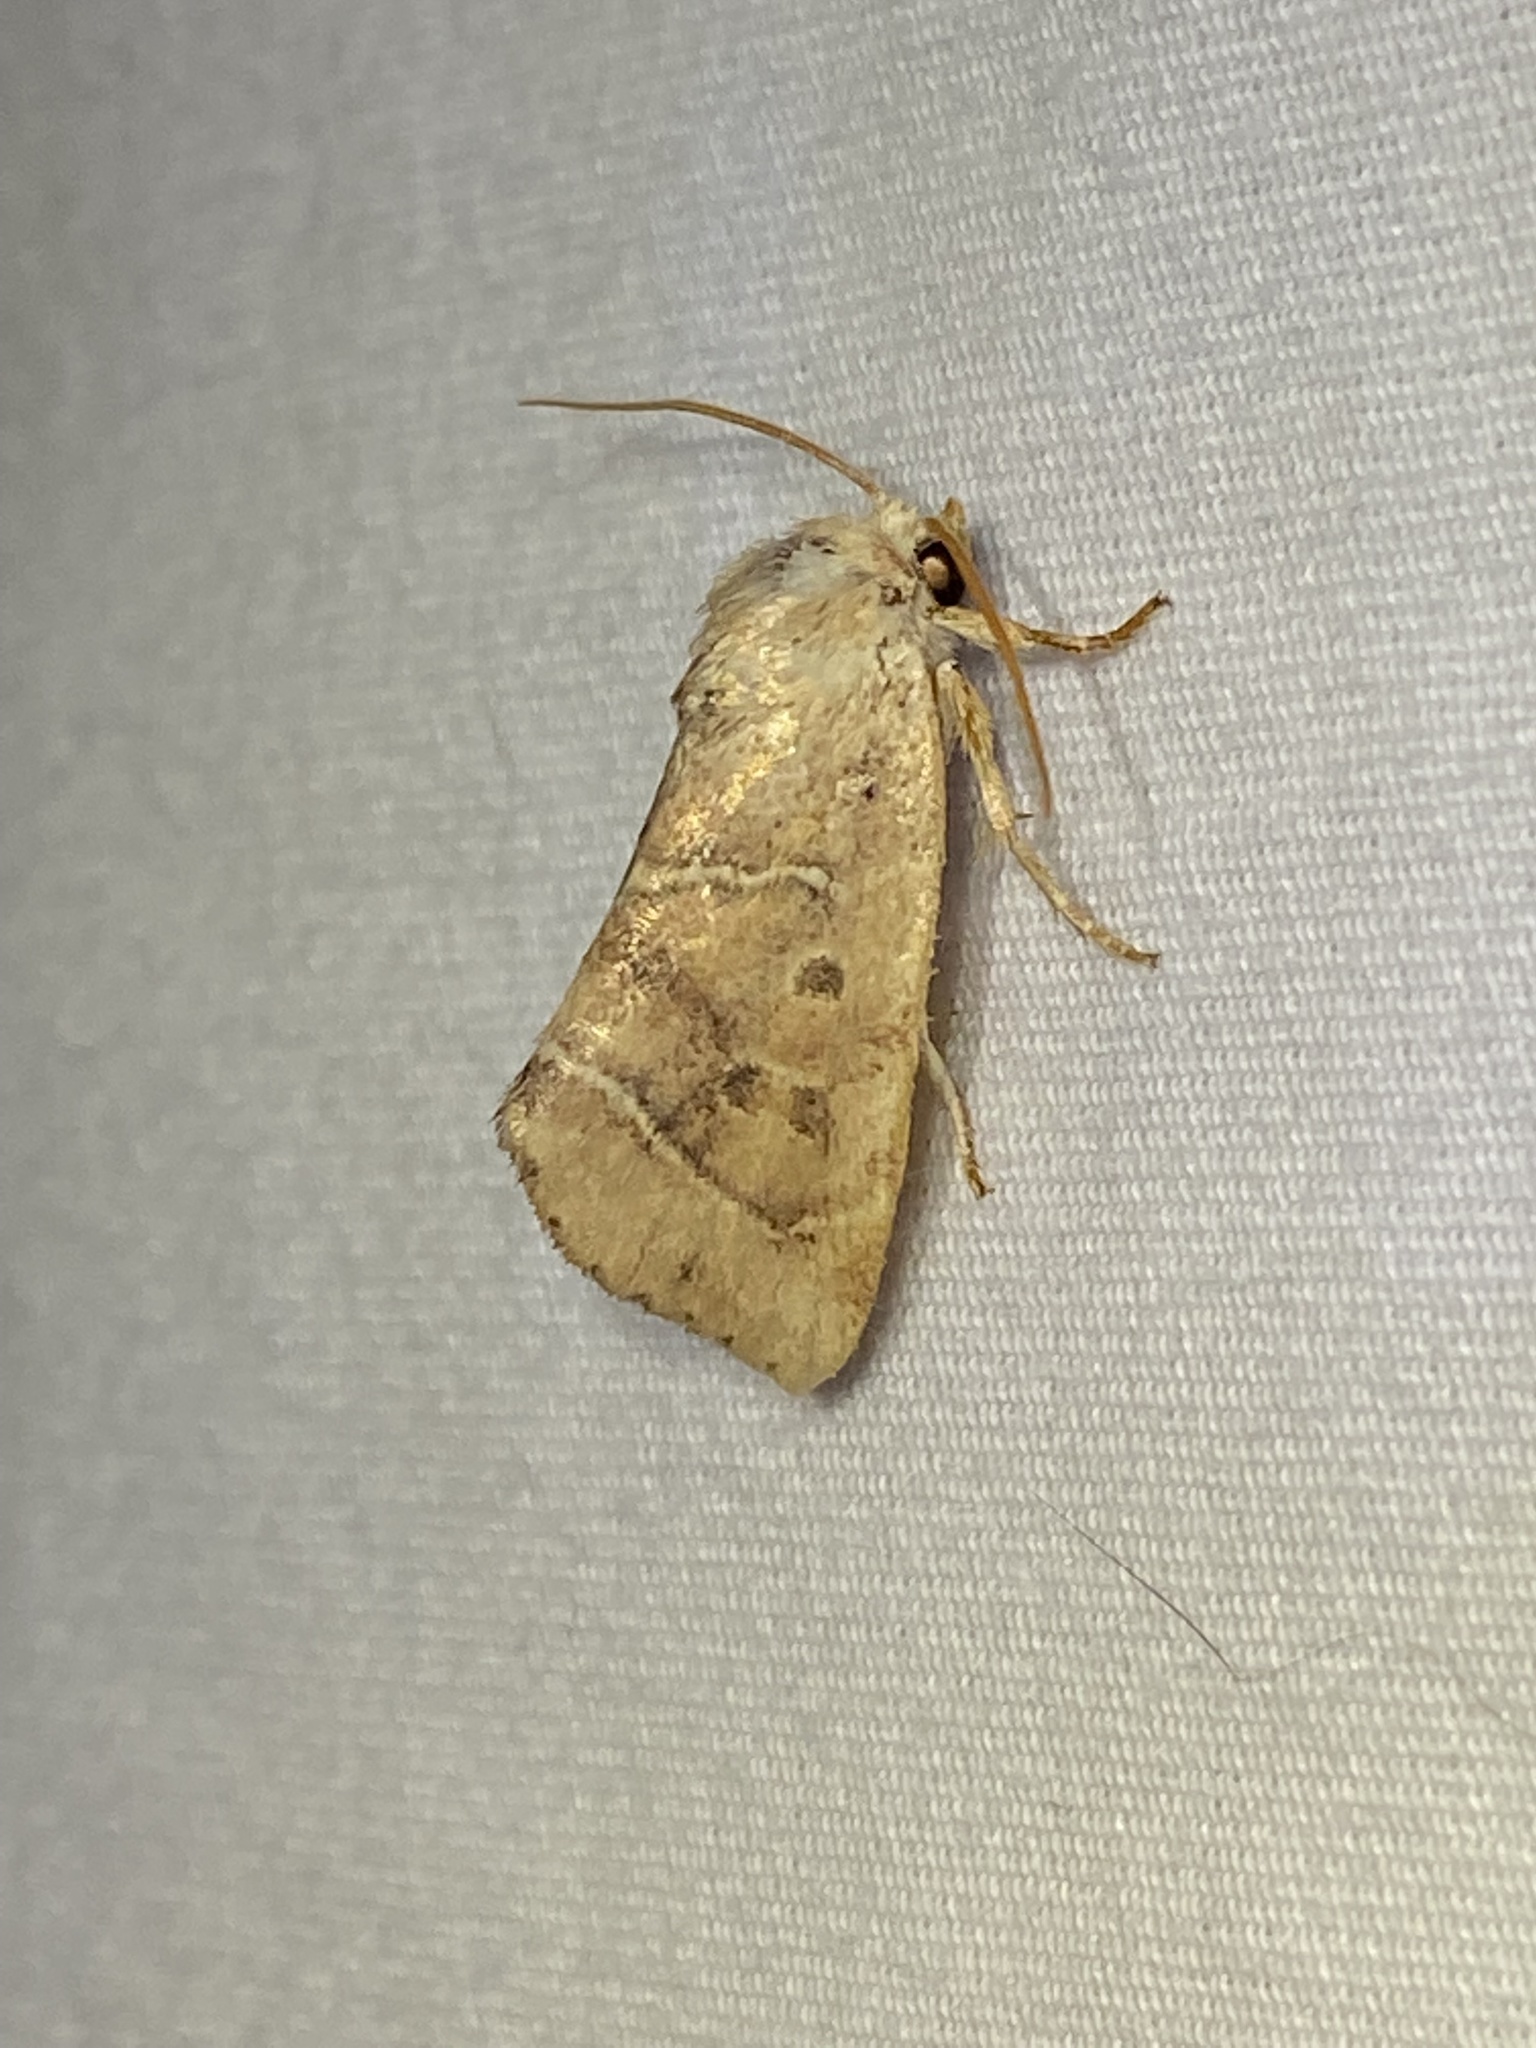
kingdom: Animalia
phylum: Arthropoda
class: Insecta
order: Lepidoptera
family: Noctuidae
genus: Cosmia
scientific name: Cosmia calami
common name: American dun-bar moth
